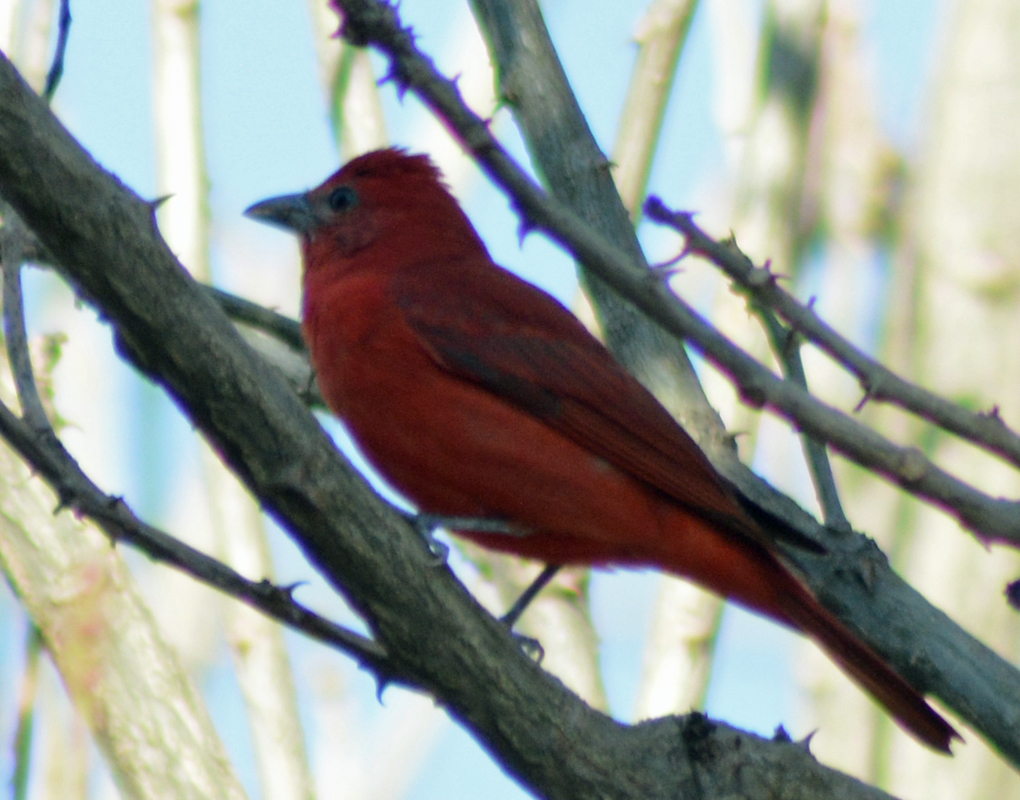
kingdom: Animalia
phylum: Chordata
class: Aves
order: Passeriformes
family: Cardinalidae
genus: Piranga
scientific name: Piranga rubra
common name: Summer tanager
